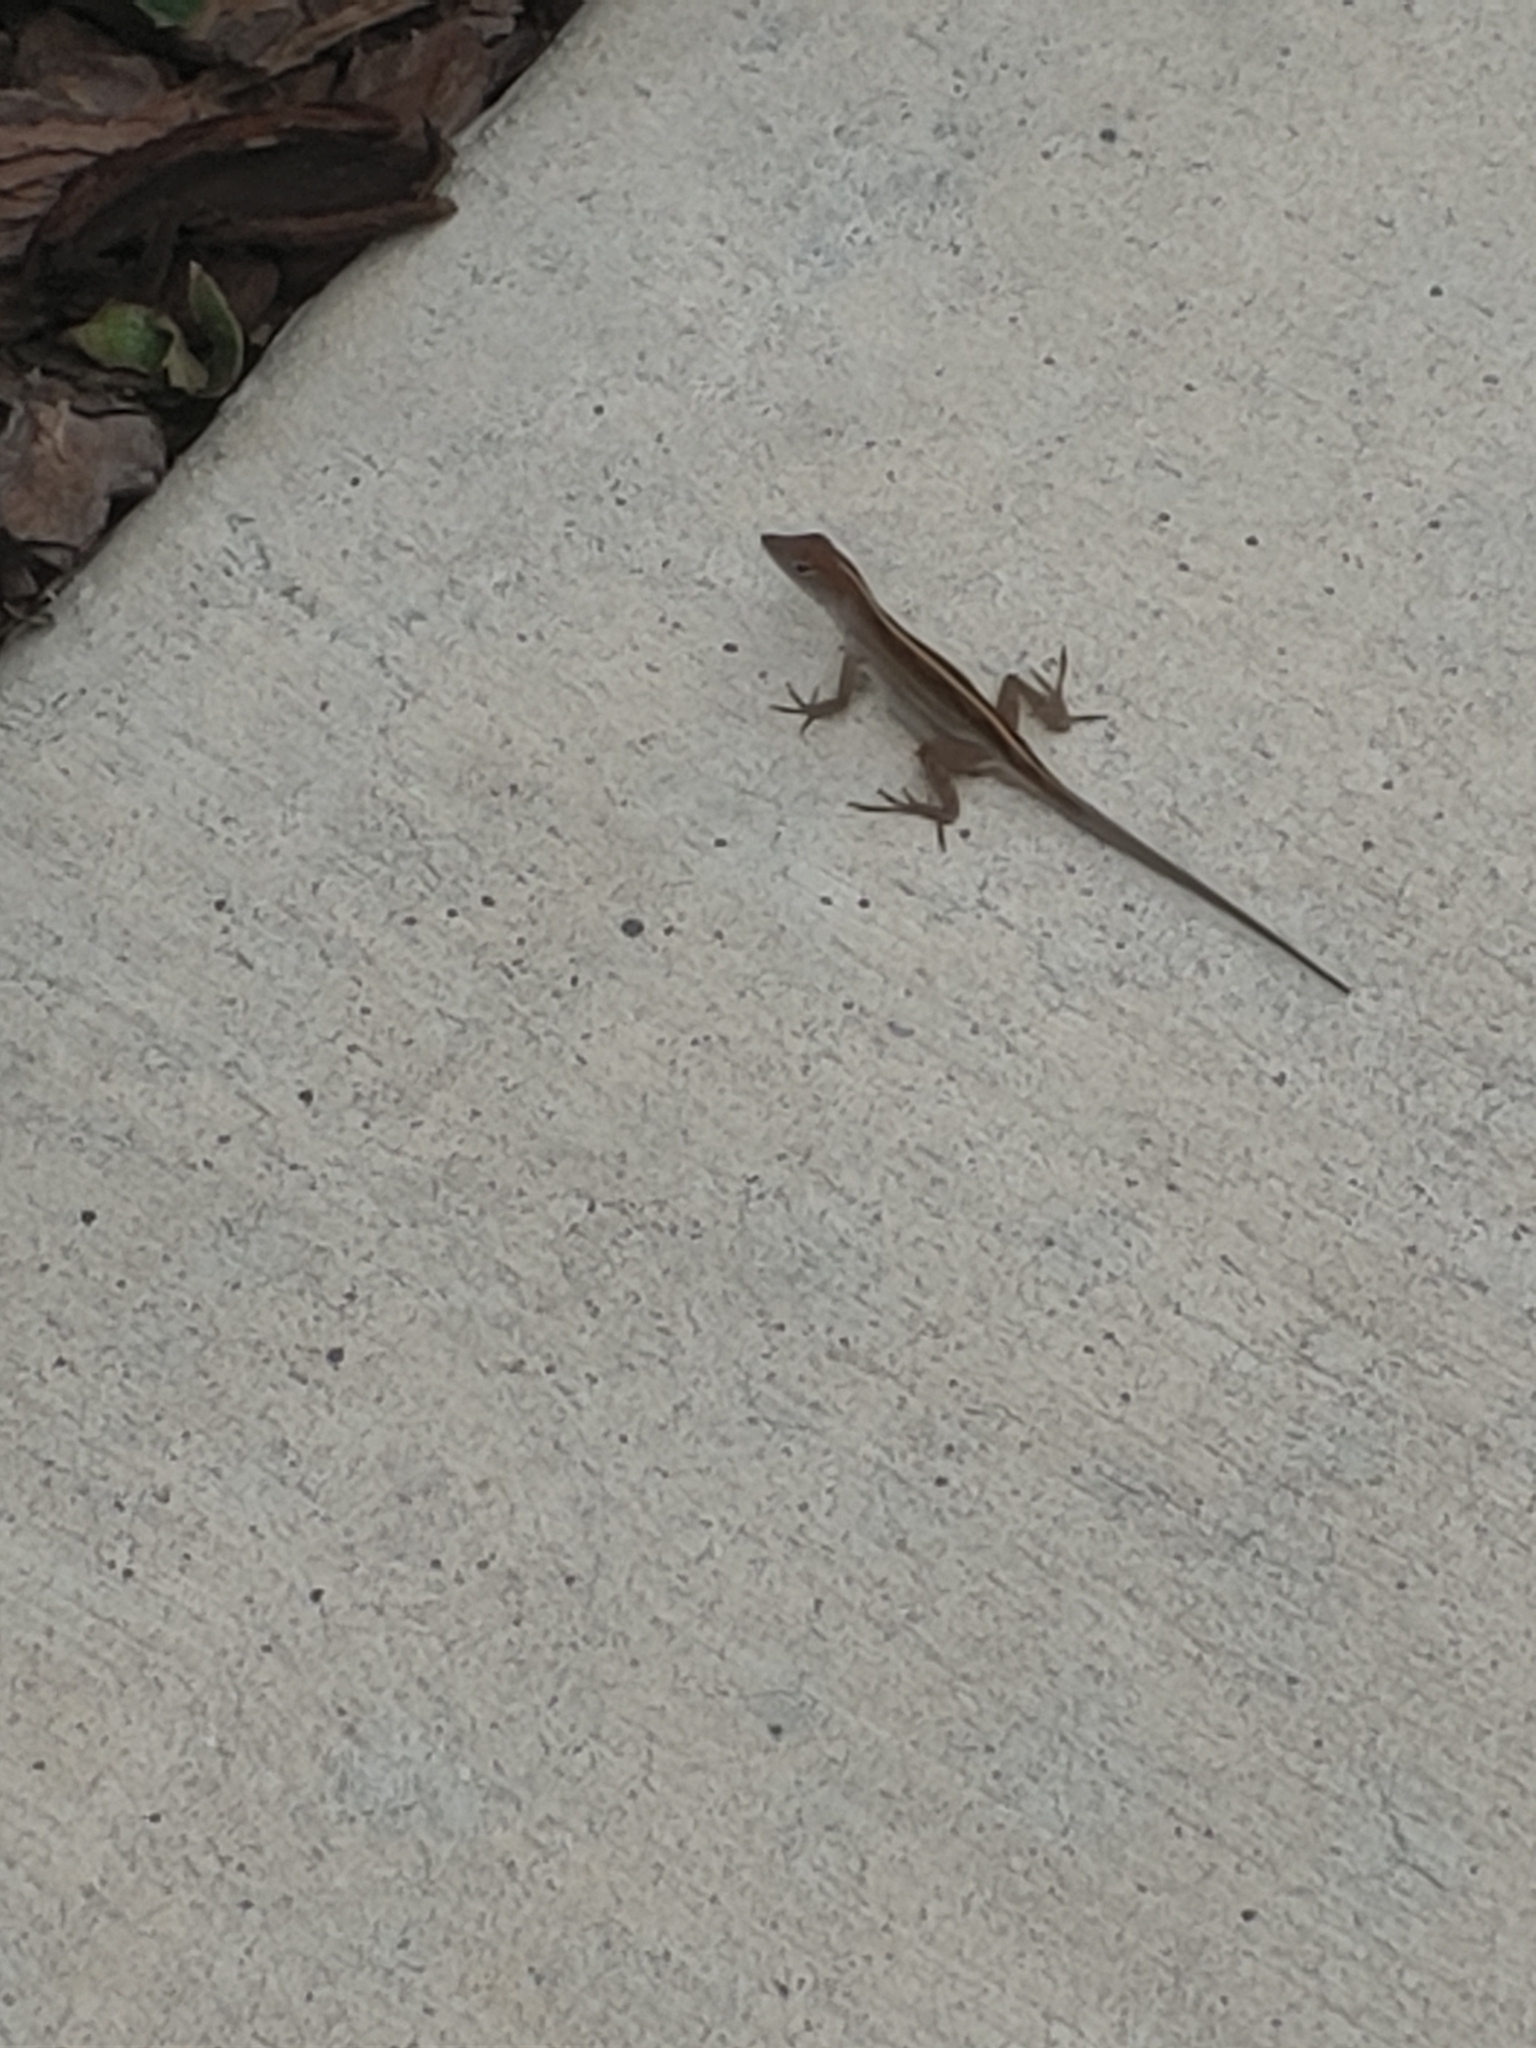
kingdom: Animalia
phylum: Chordata
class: Squamata
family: Dactyloidae
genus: Anolis
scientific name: Anolis sagrei
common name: Brown anole
